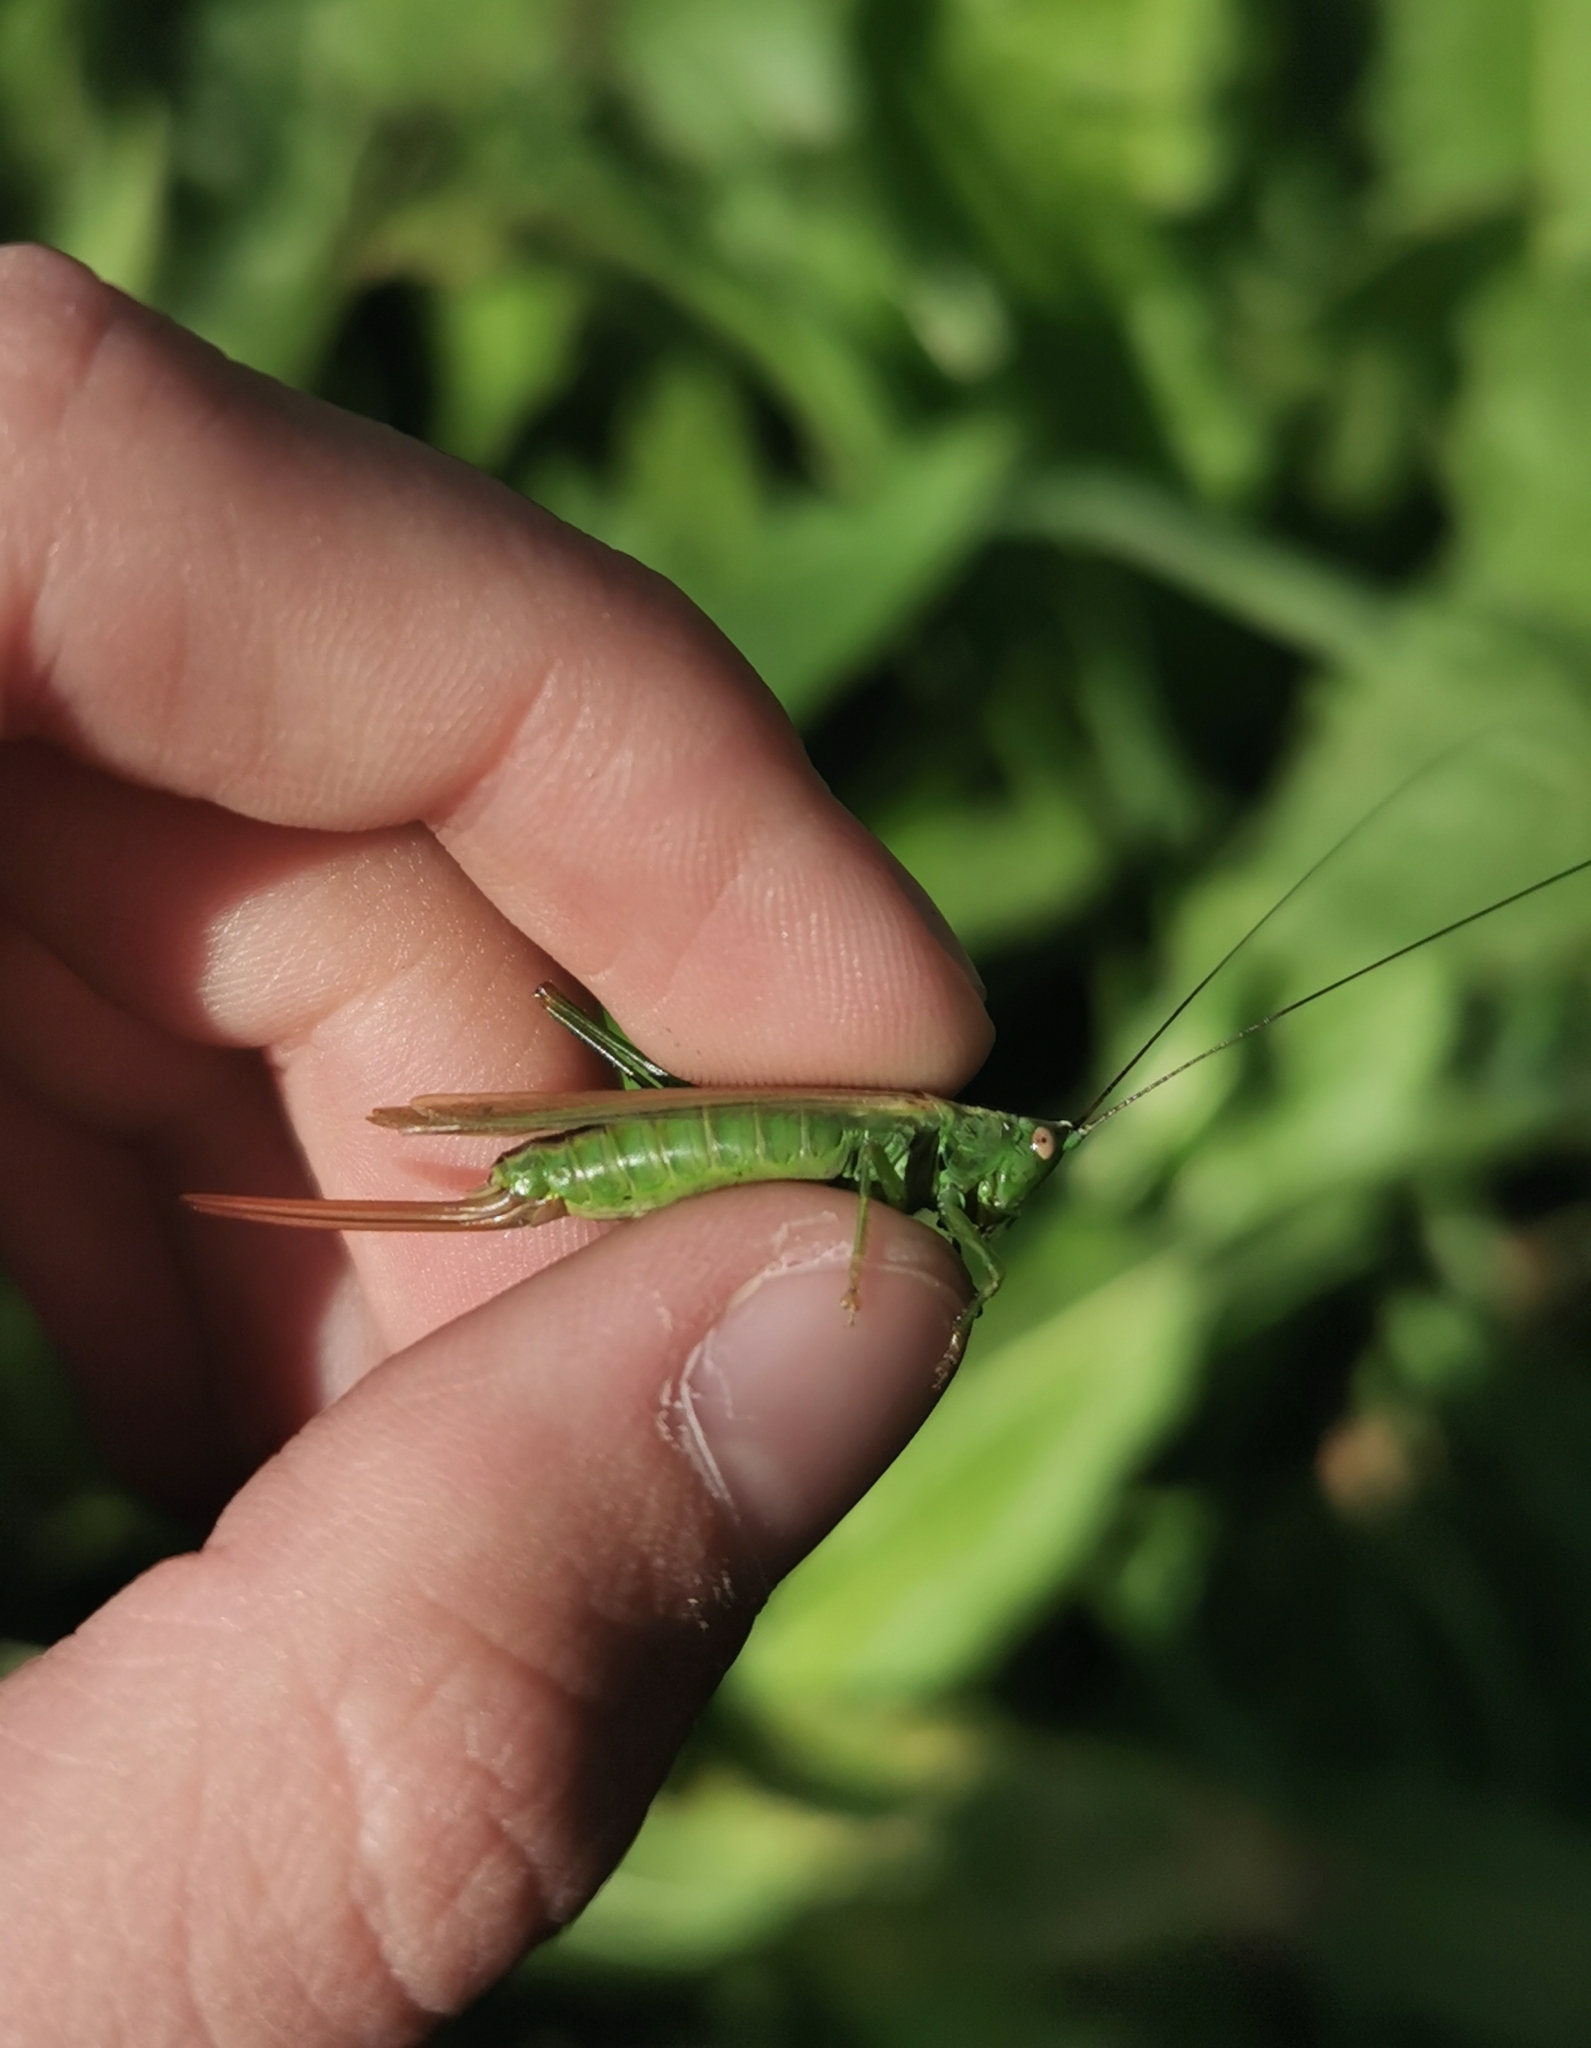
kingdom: Animalia
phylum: Arthropoda
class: Insecta
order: Orthoptera
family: Tettigoniidae
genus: Conocephalus
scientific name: Conocephalus fuscus
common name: Long-winged conehead
